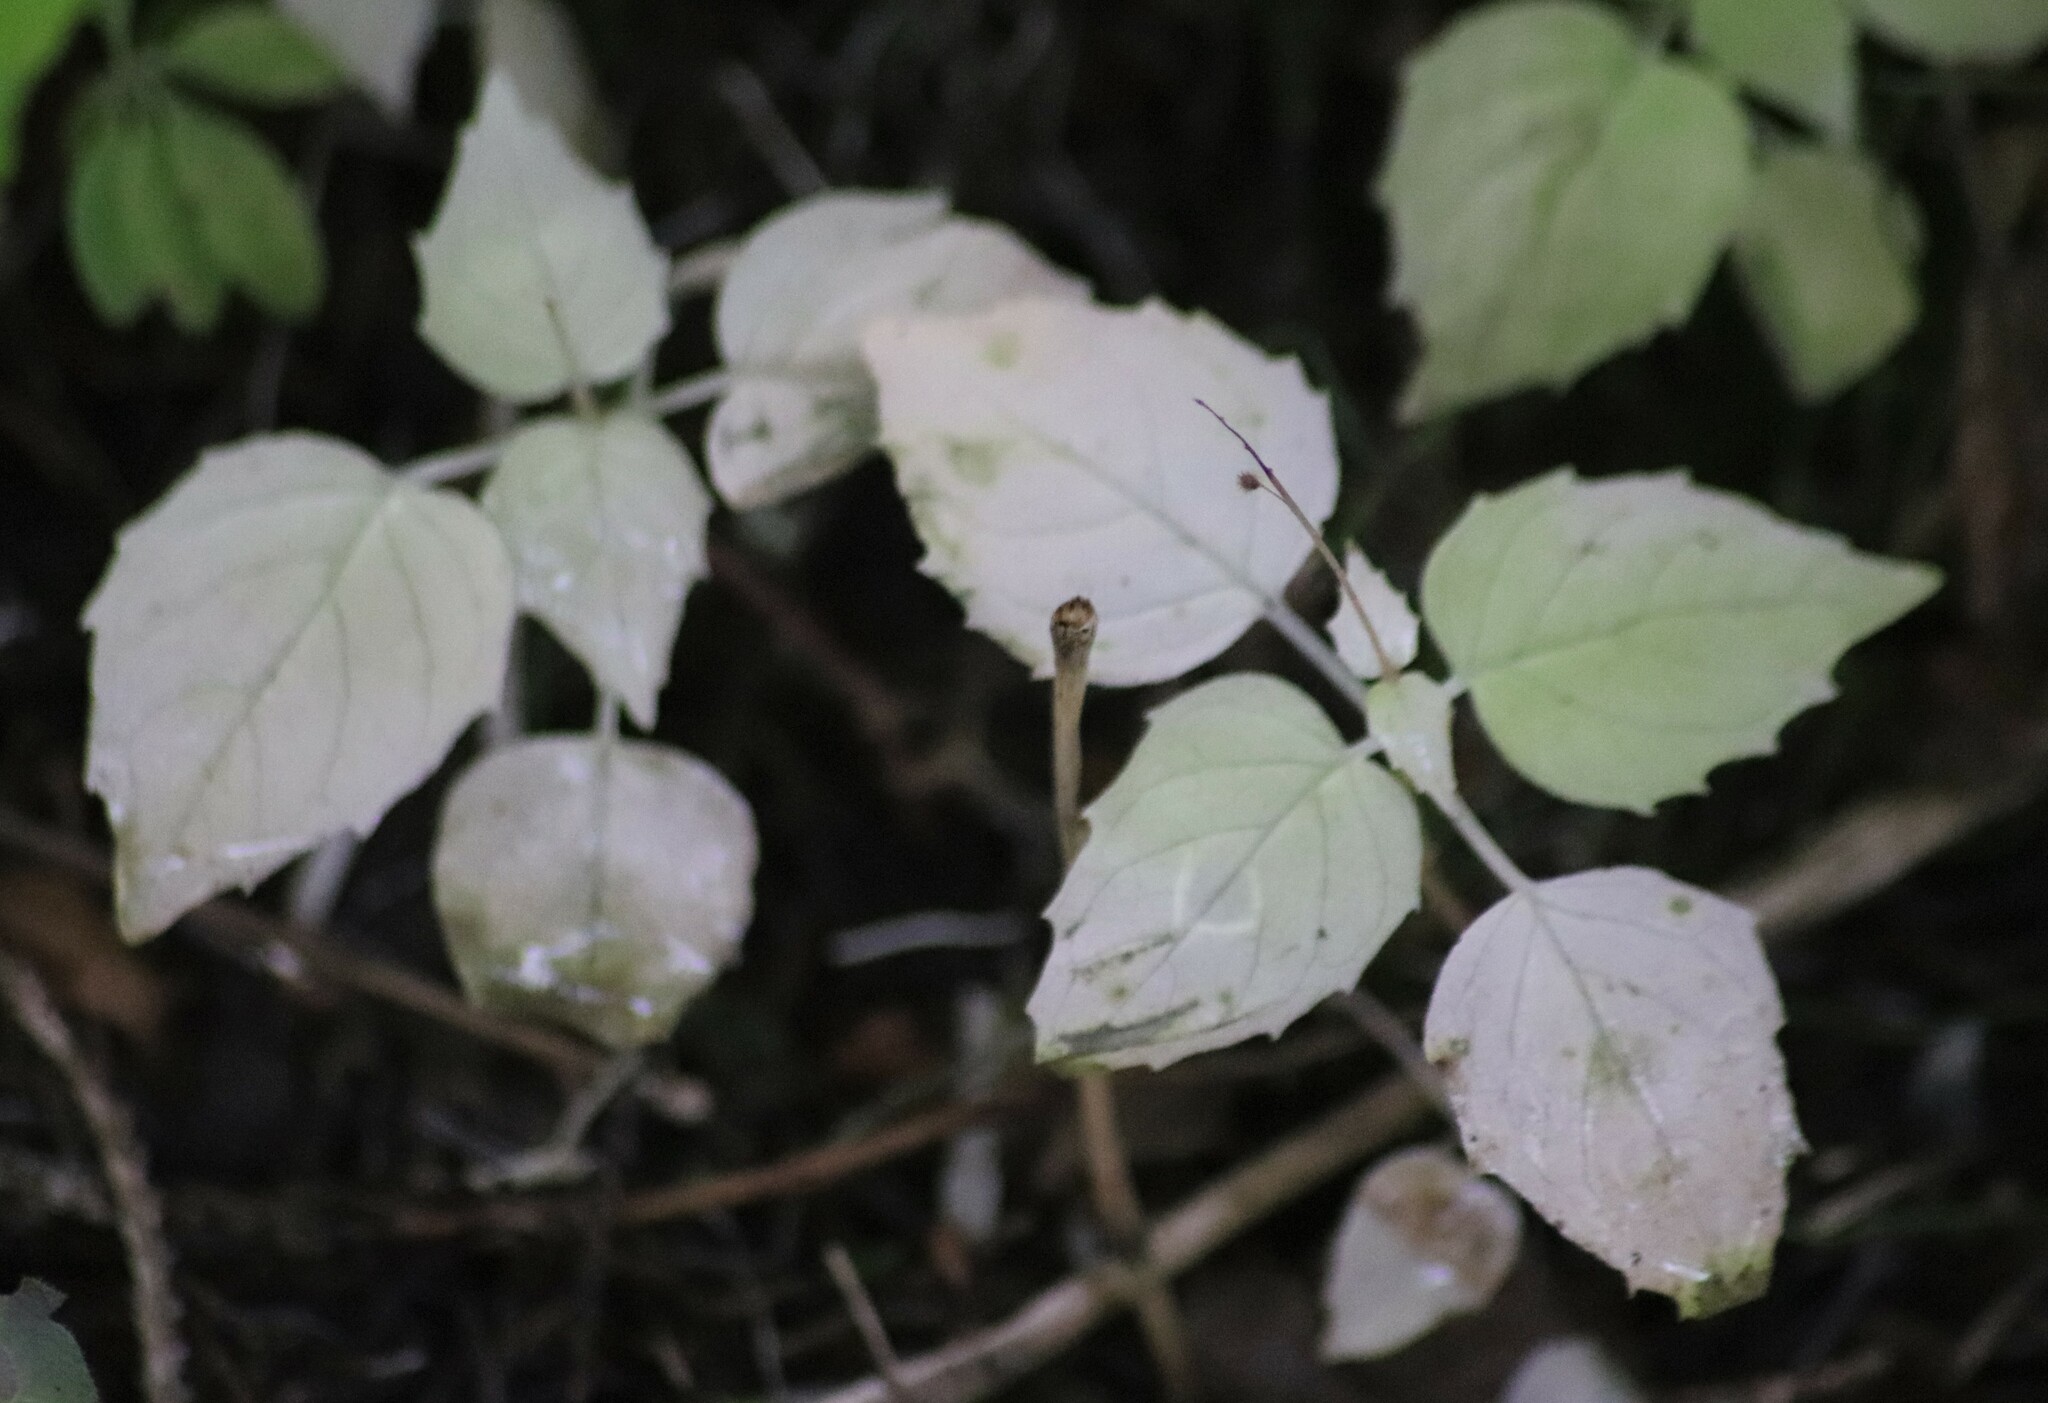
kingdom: Plantae
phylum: Tracheophyta
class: Magnoliopsida
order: Myrtales
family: Onagraceae
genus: Circaea
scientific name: Circaea alpina
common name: Alpine enchanter's-nightshade
